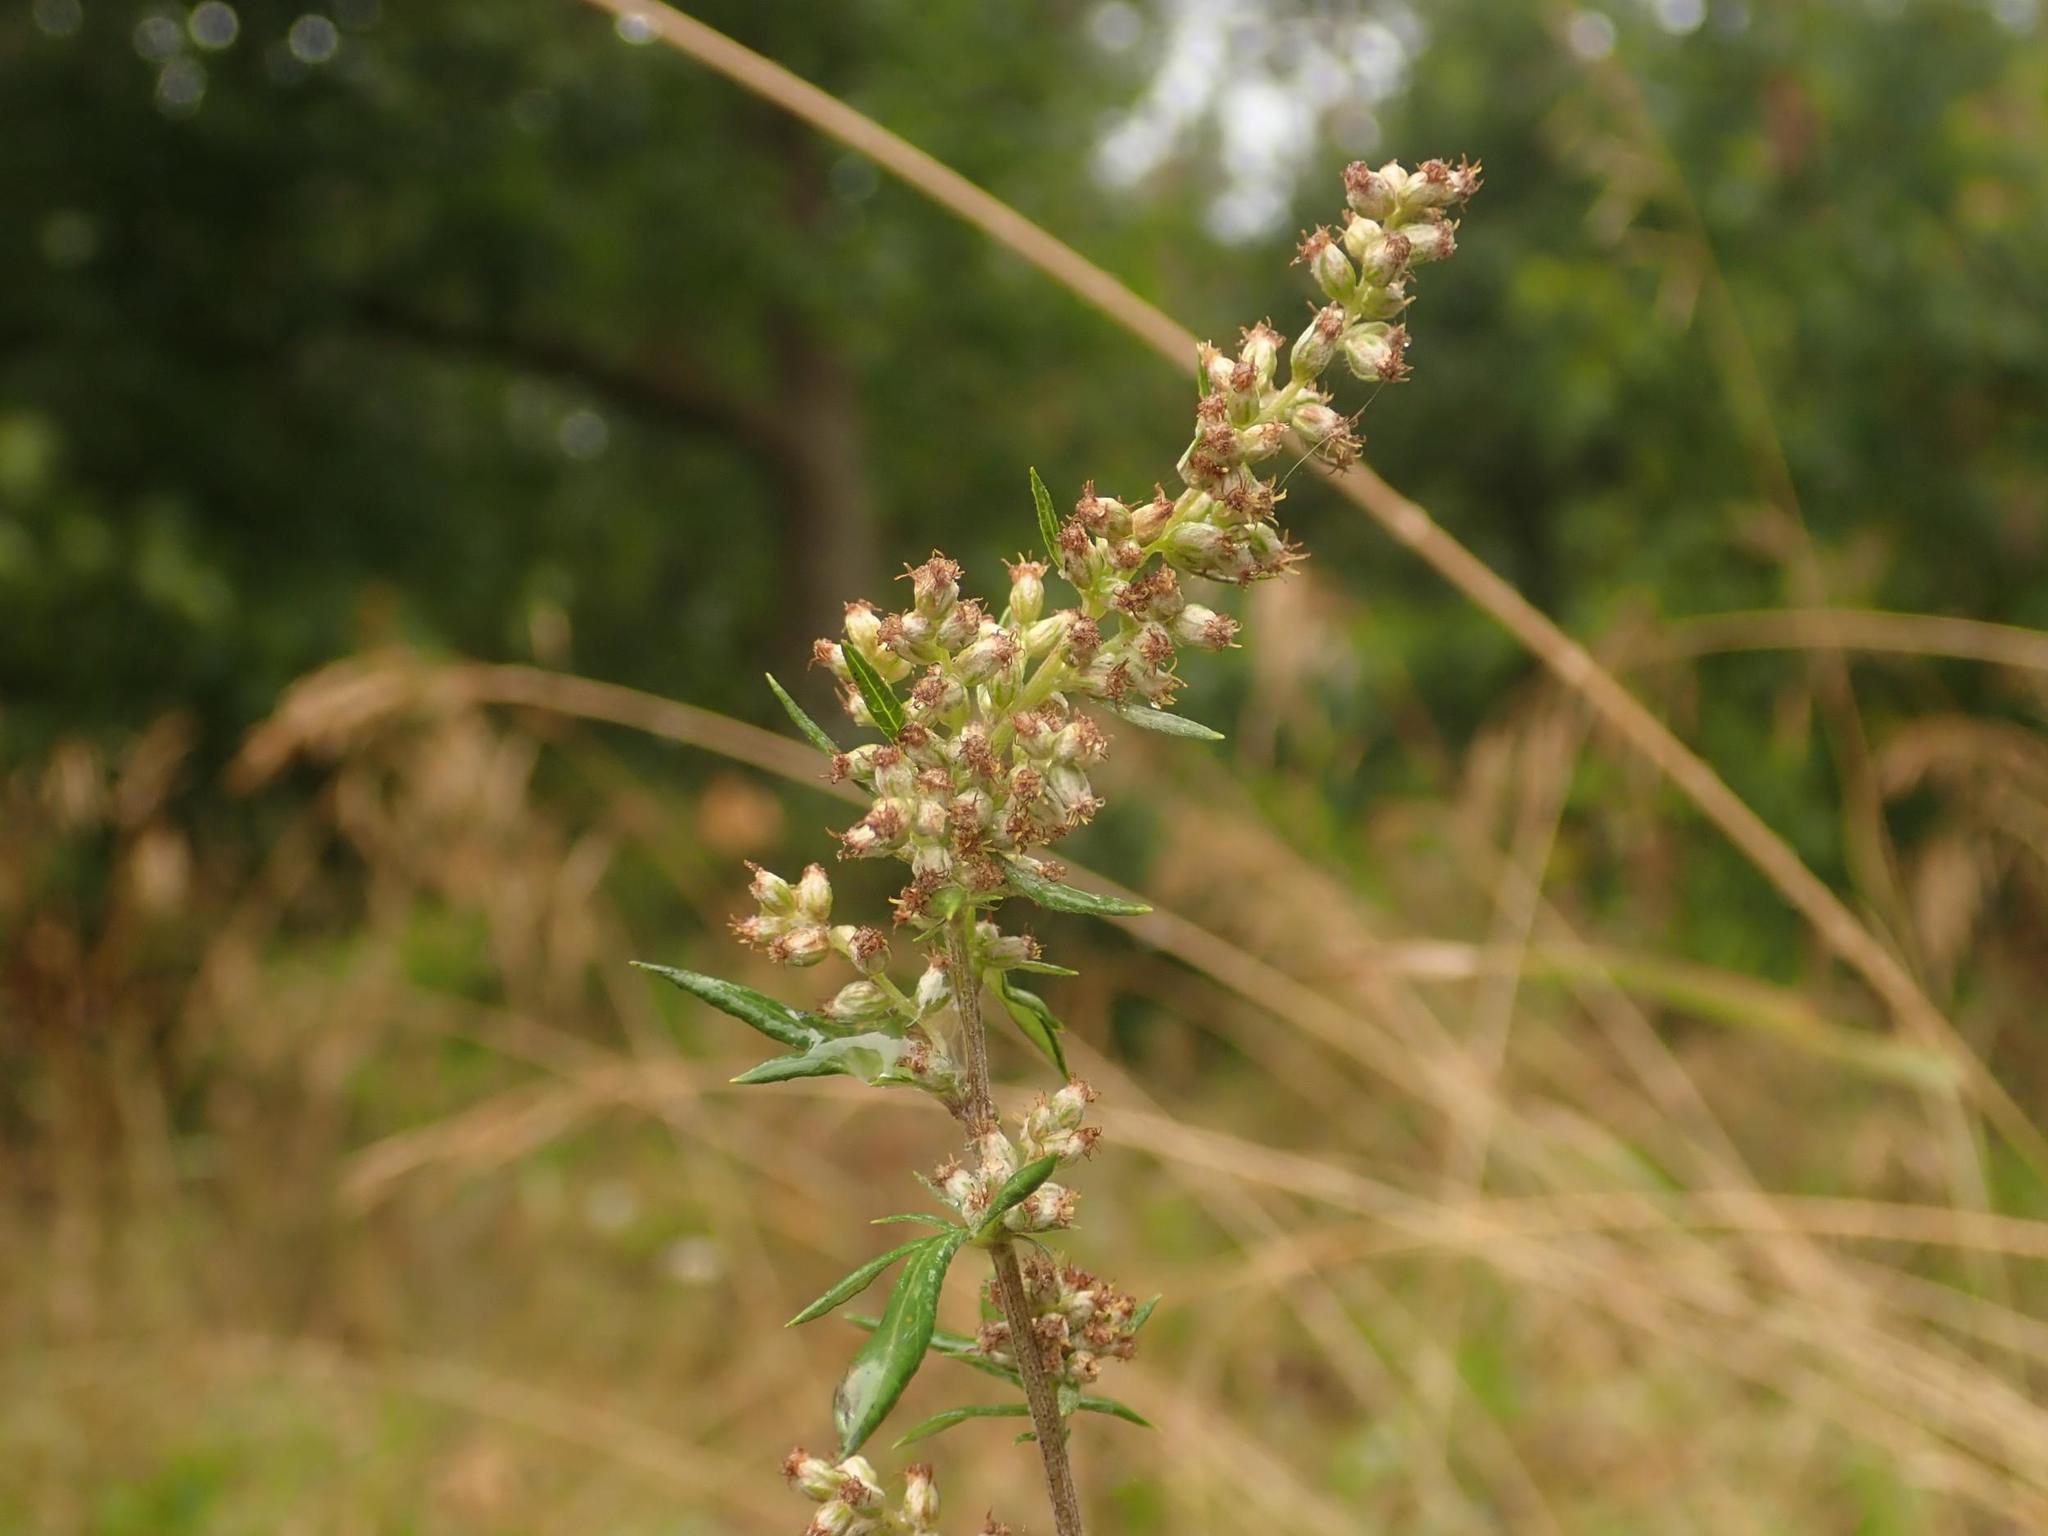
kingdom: Plantae
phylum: Tracheophyta
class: Magnoliopsida
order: Asterales
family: Asteraceae
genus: Artemisia
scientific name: Artemisia vulgaris
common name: Mugwort
